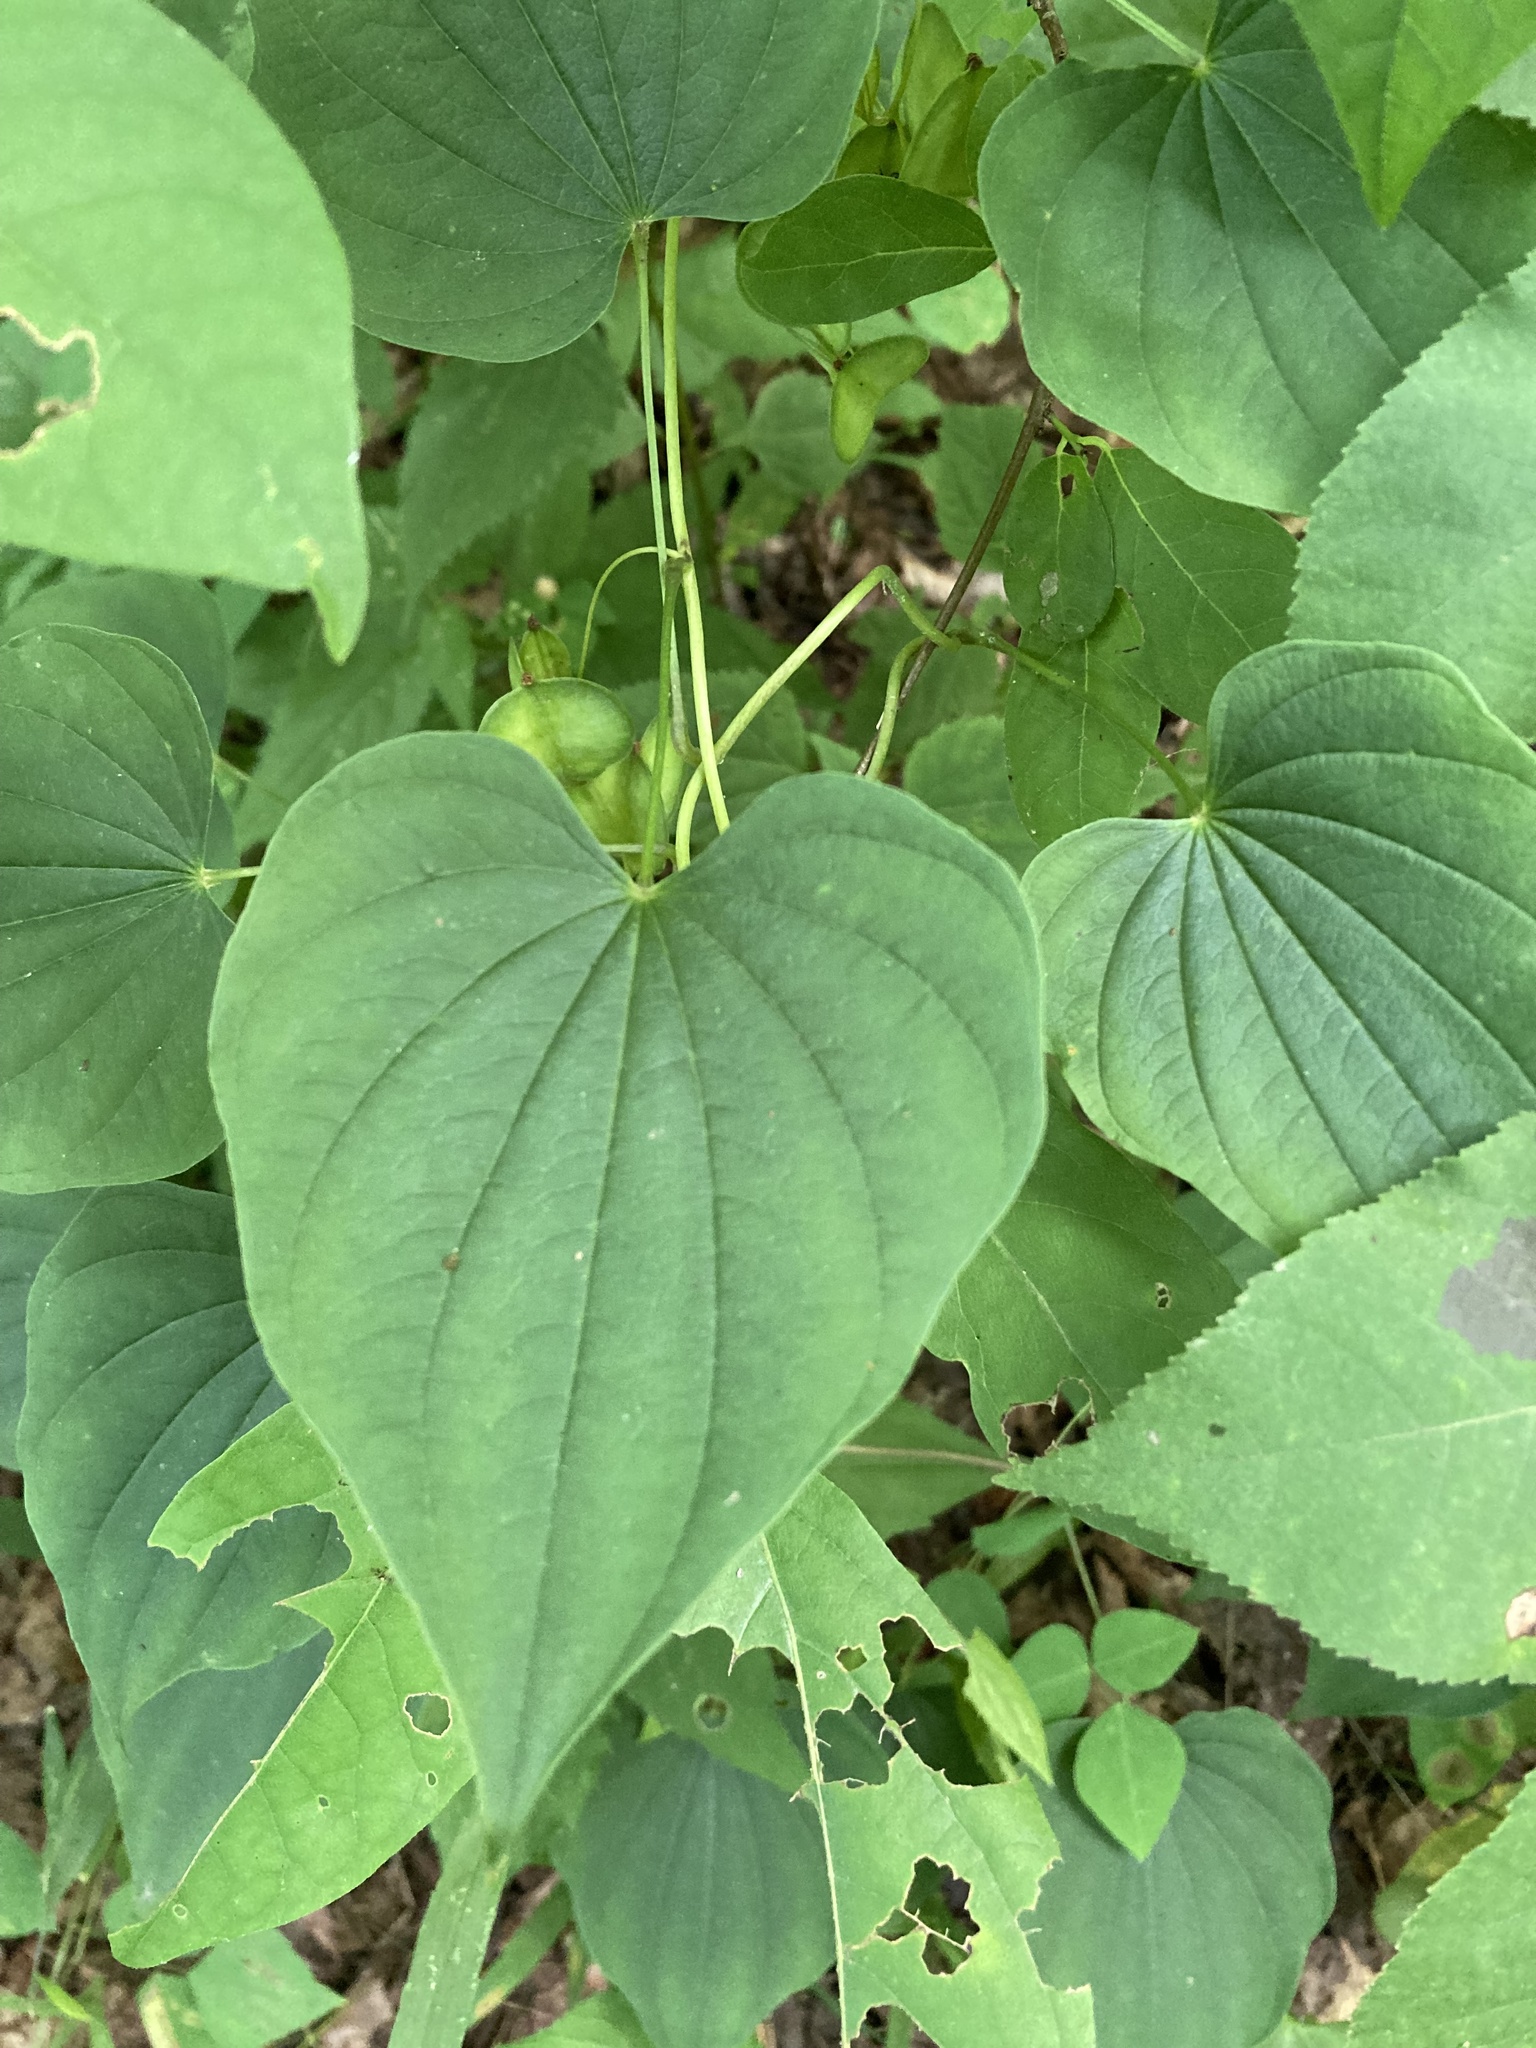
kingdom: Plantae
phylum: Tracheophyta
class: Liliopsida
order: Dioscoreales
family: Dioscoreaceae
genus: Dioscorea
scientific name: Dioscorea villosa
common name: Wild yam
